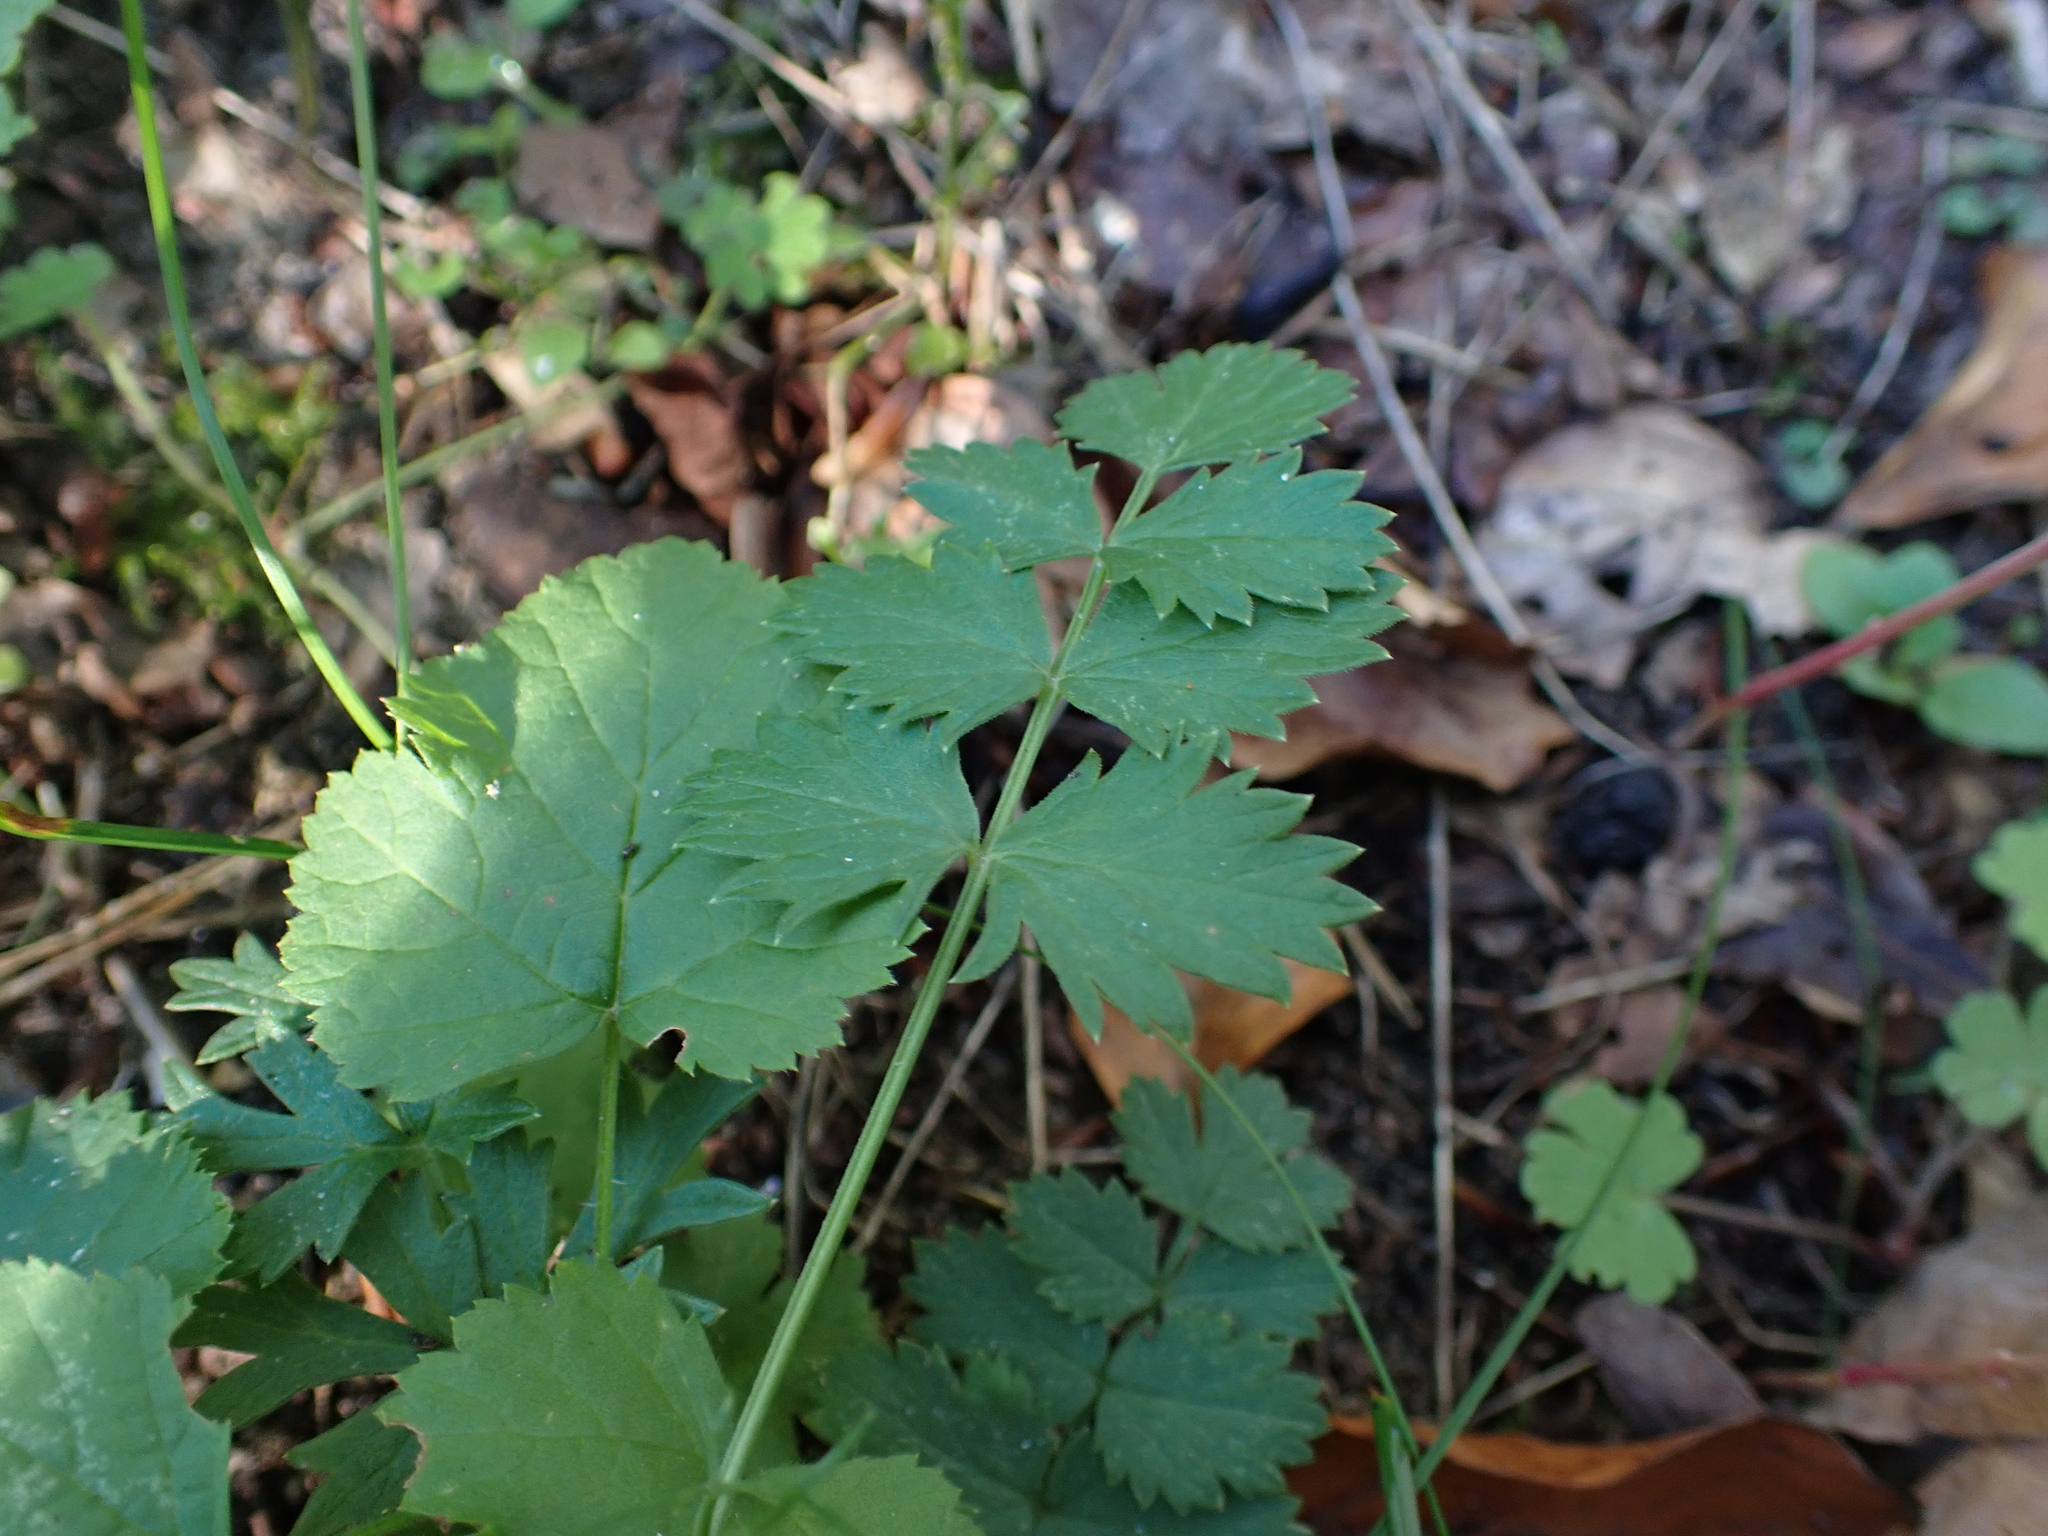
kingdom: Plantae
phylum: Tracheophyta
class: Magnoliopsida
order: Apiales
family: Apiaceae
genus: Pimpinella
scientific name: Pimpinella saxifraga
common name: Burnet-saxifrage
